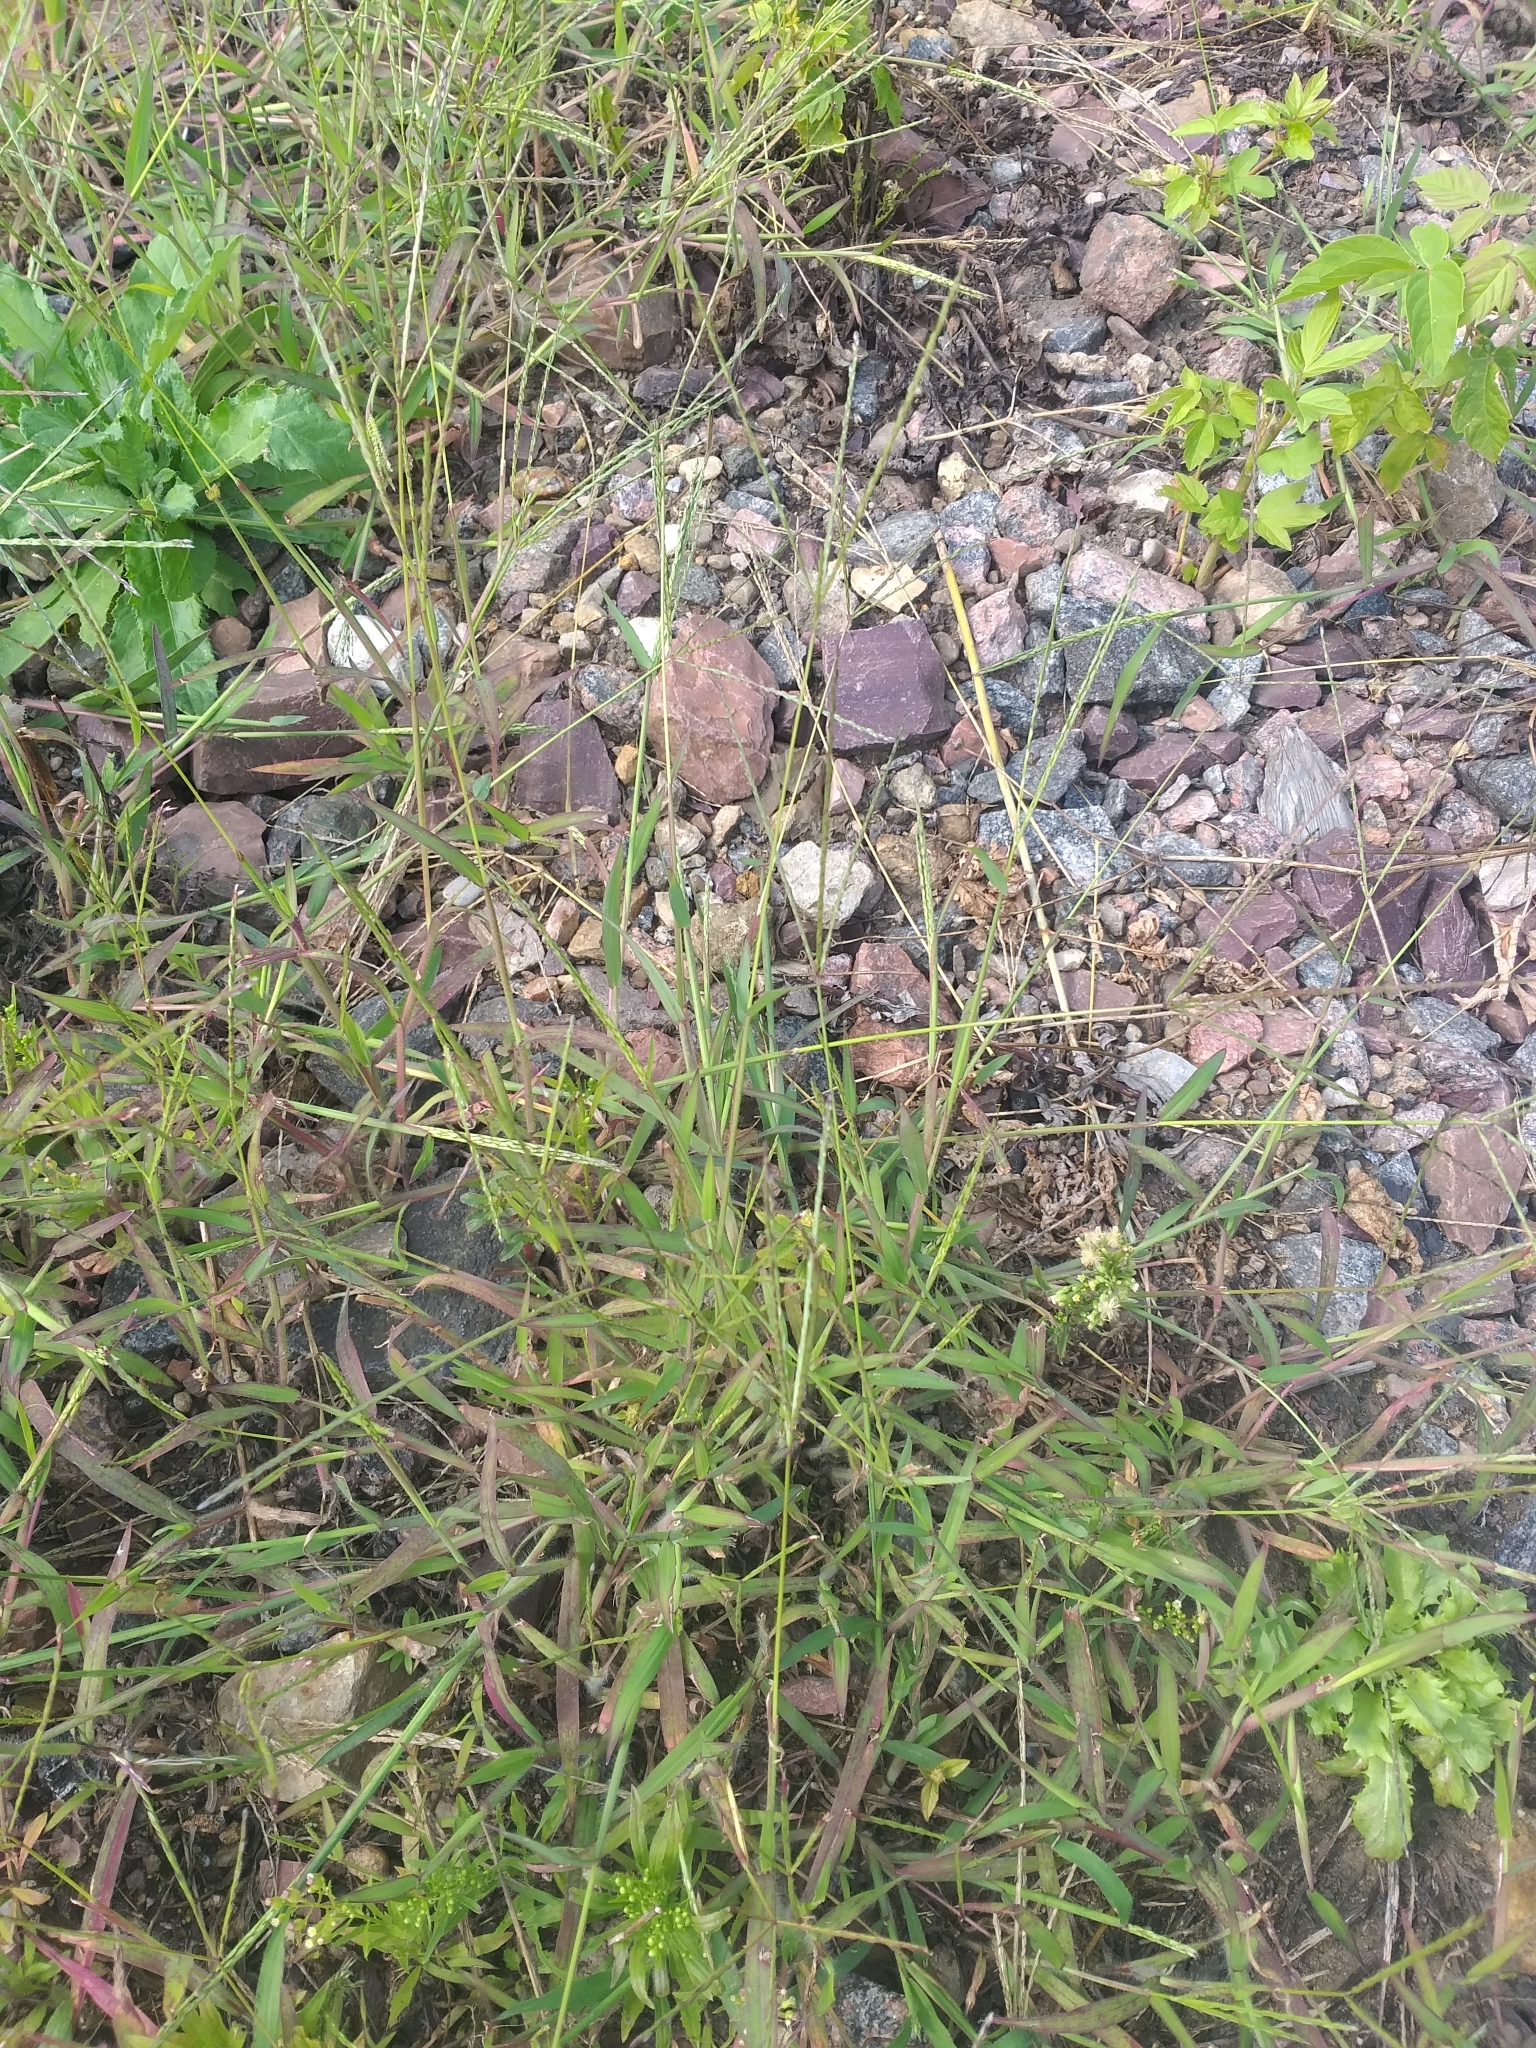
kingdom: Plantae
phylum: Tracheophyta
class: Liliopsida
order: Poales
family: Poaceae
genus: Digitaria
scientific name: Digitaria sanguinalis
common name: Hairy crabgrass
